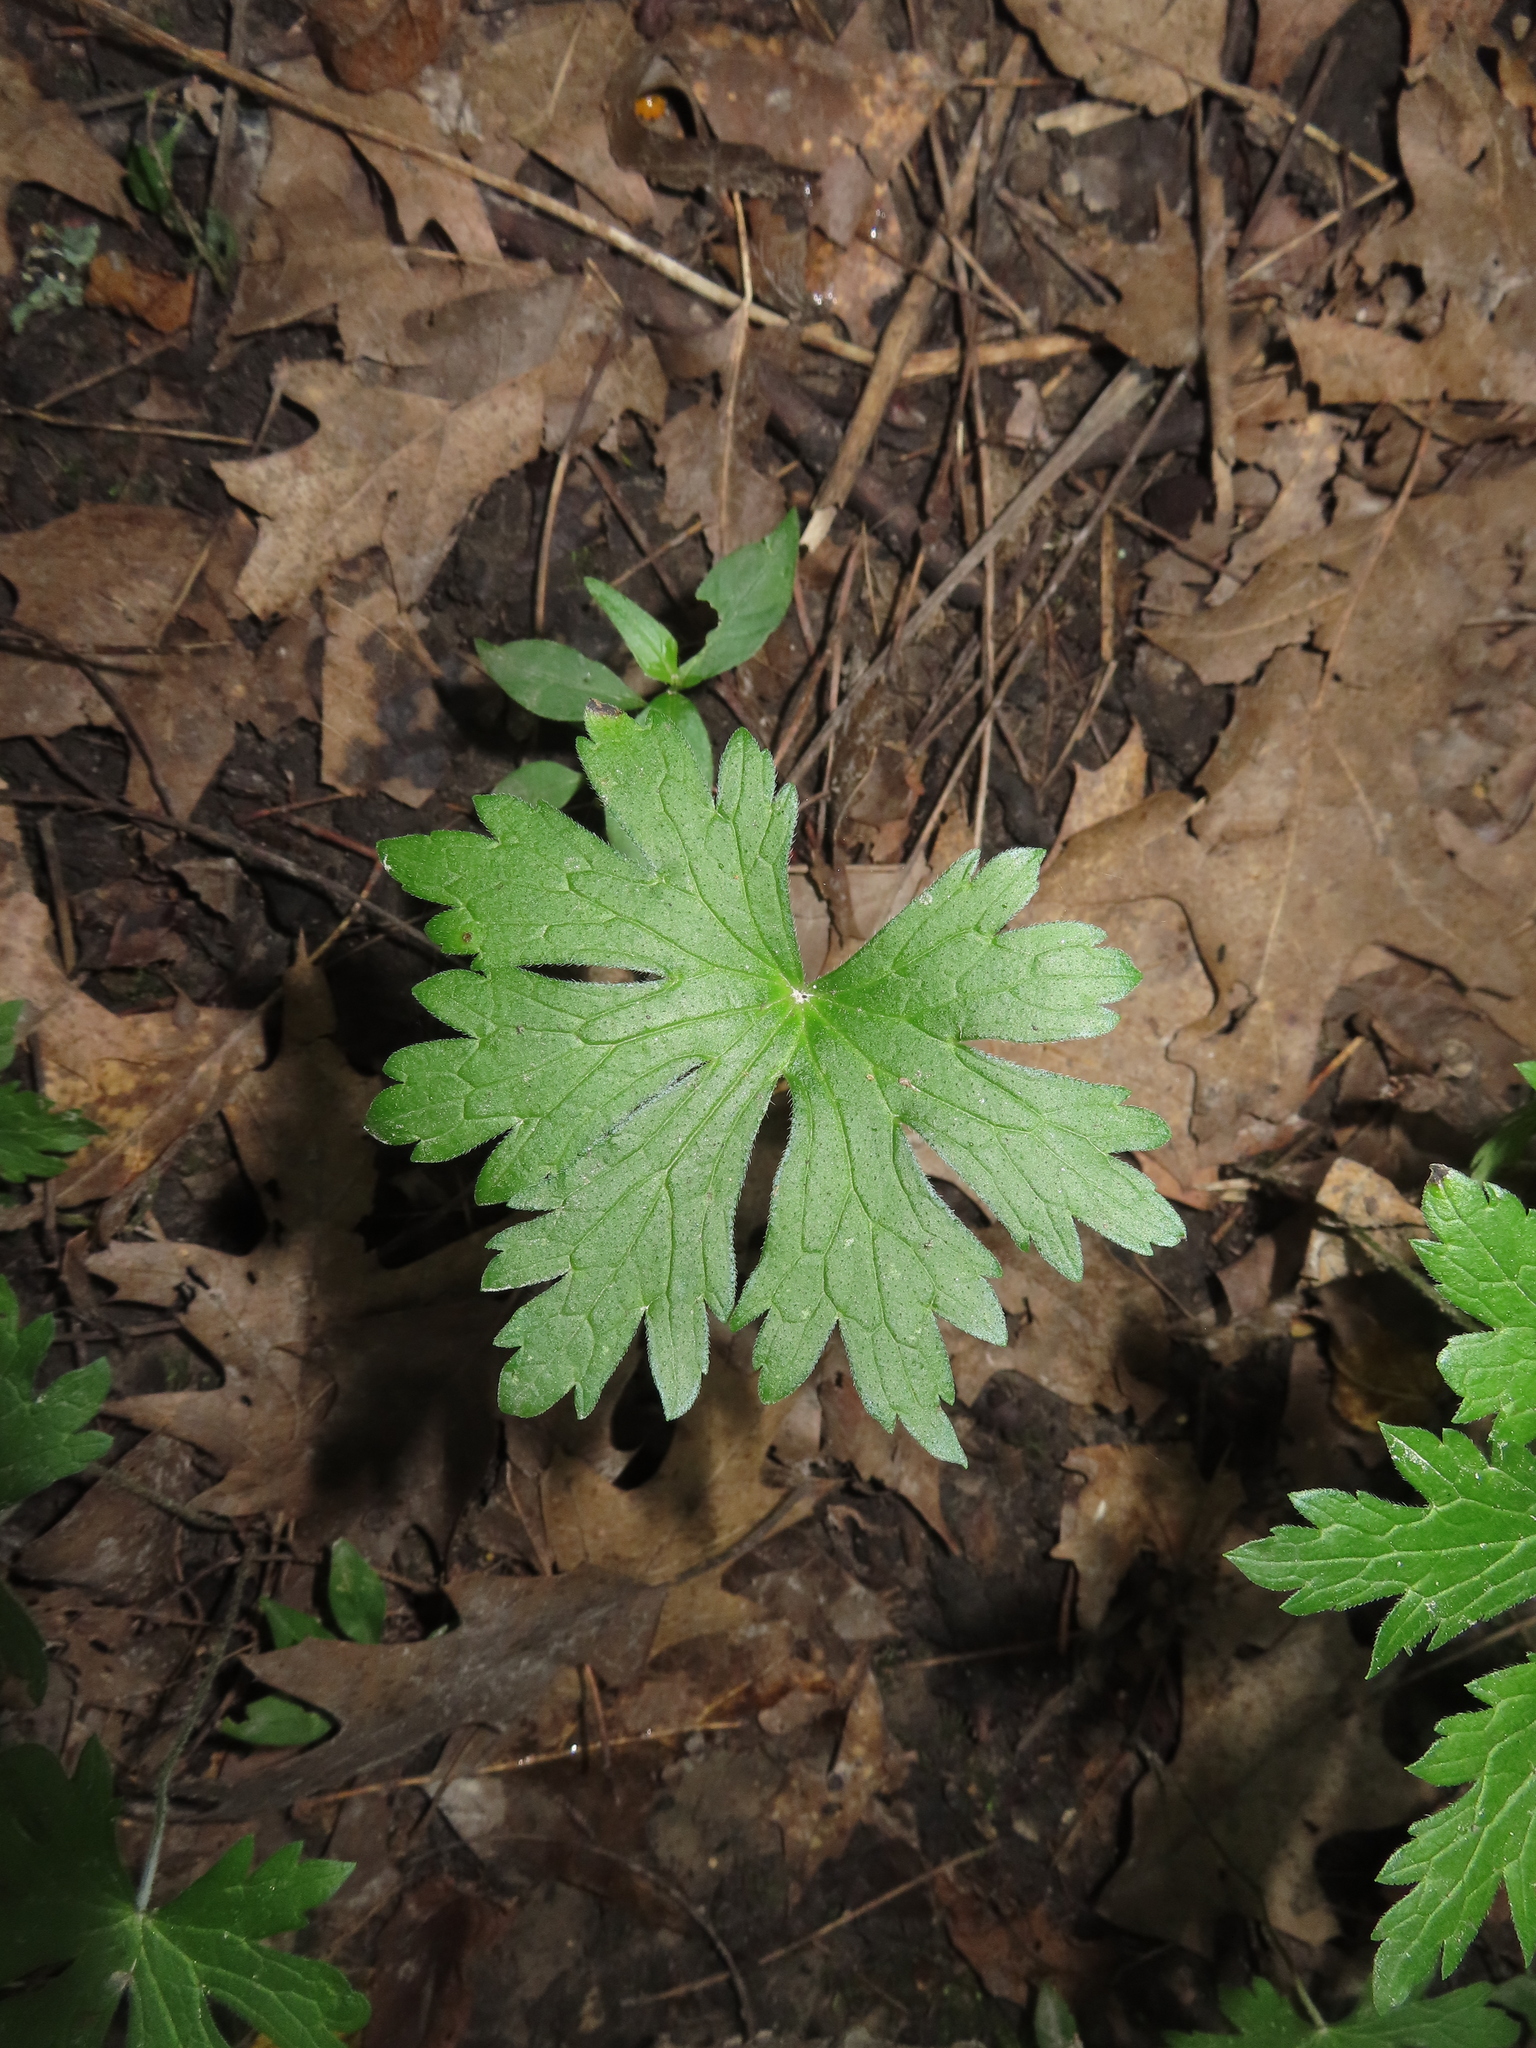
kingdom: Plantae
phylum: Tracheophyta
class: Magnoliopsida
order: Geraniales
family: Geraniaceae
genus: Geranium
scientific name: Geranium maculatum
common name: Spotted geranium
